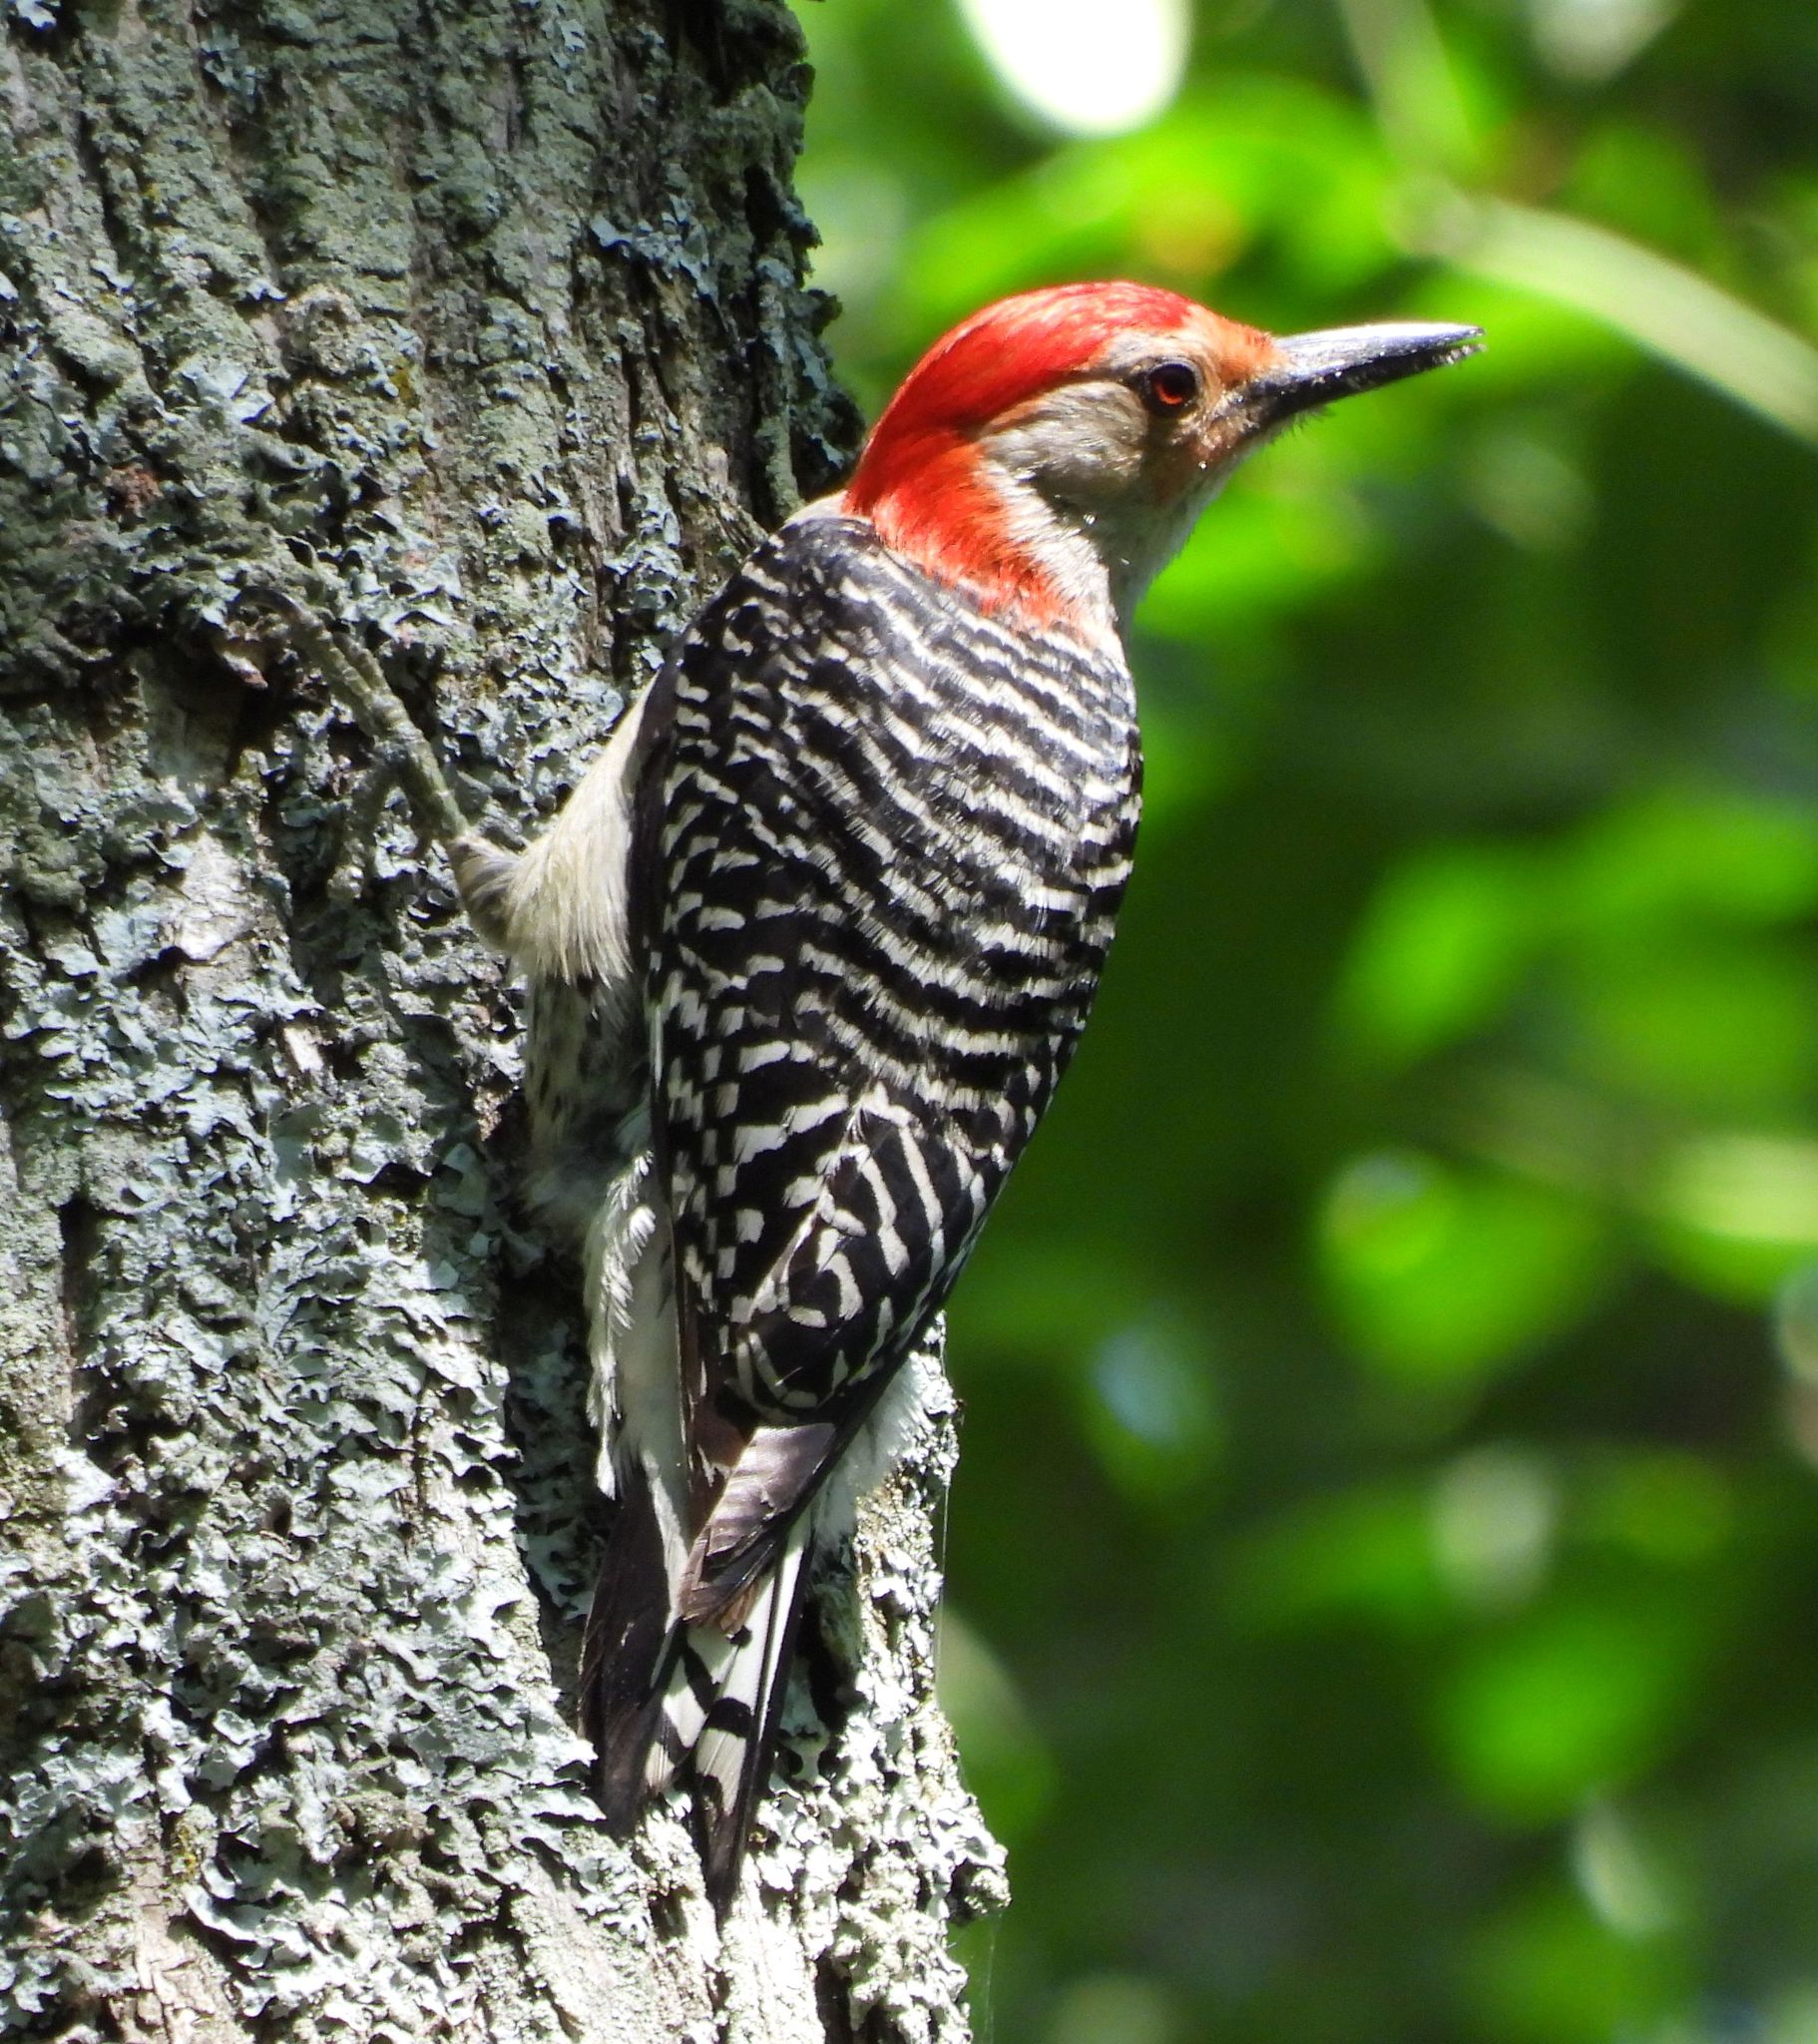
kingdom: Animalia
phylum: Chordata
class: Aves
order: Piciformes
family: Picidae
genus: Melanerpes
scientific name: Melanerpes carolinus
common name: Red-bellied woodpecker
